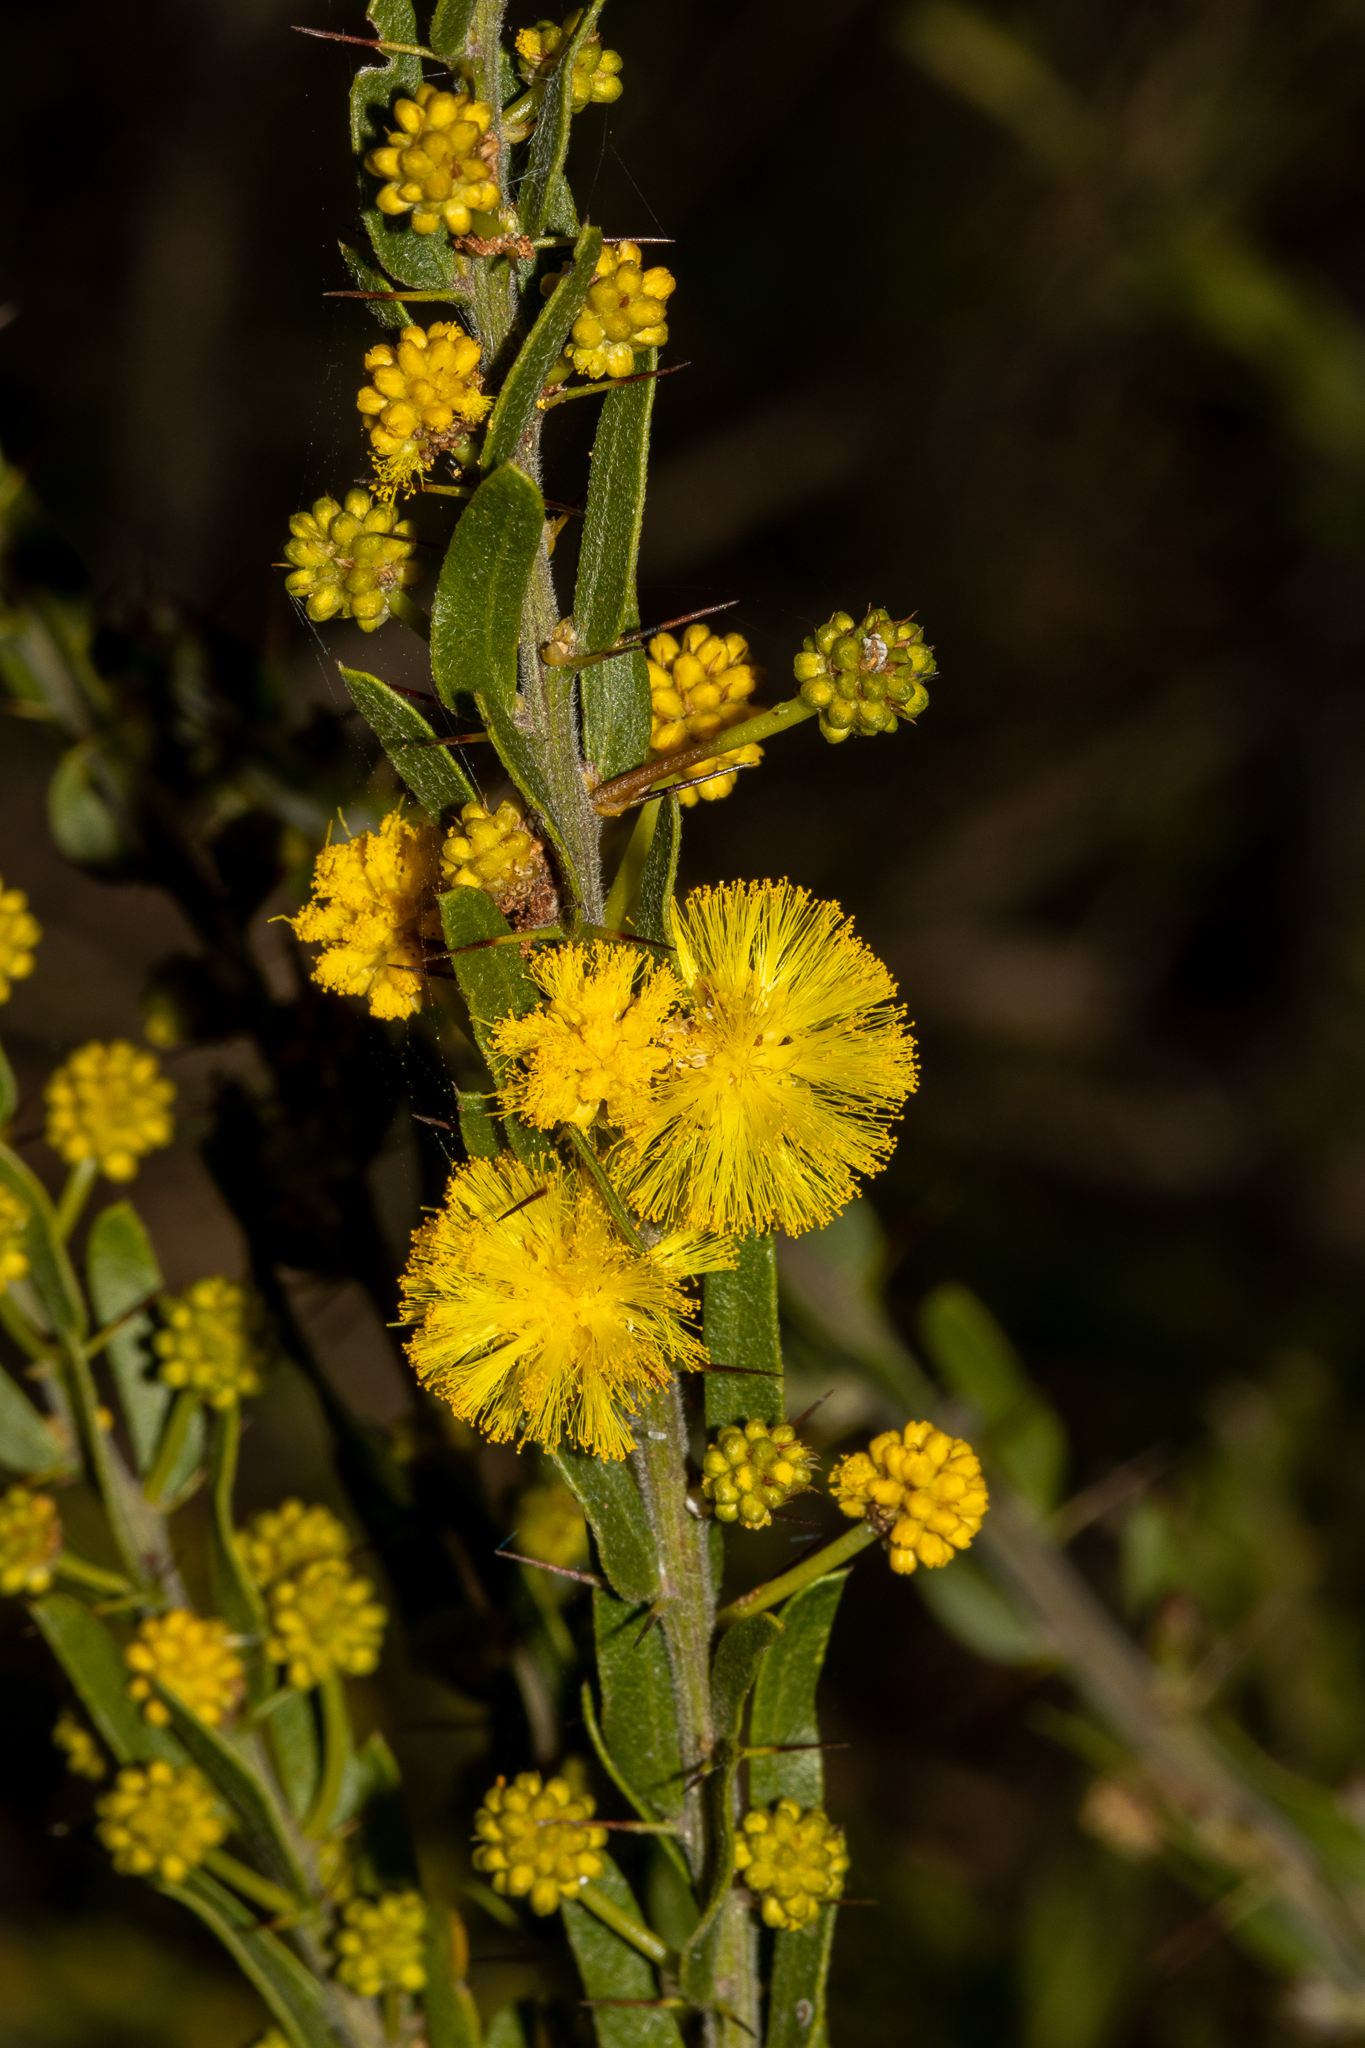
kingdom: Plantae
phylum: Tracheophyta
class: Magnoliopsida
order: Fabales
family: Fabaceae
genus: Acacia
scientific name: Acacia paradoxa
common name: Paradox acacia
